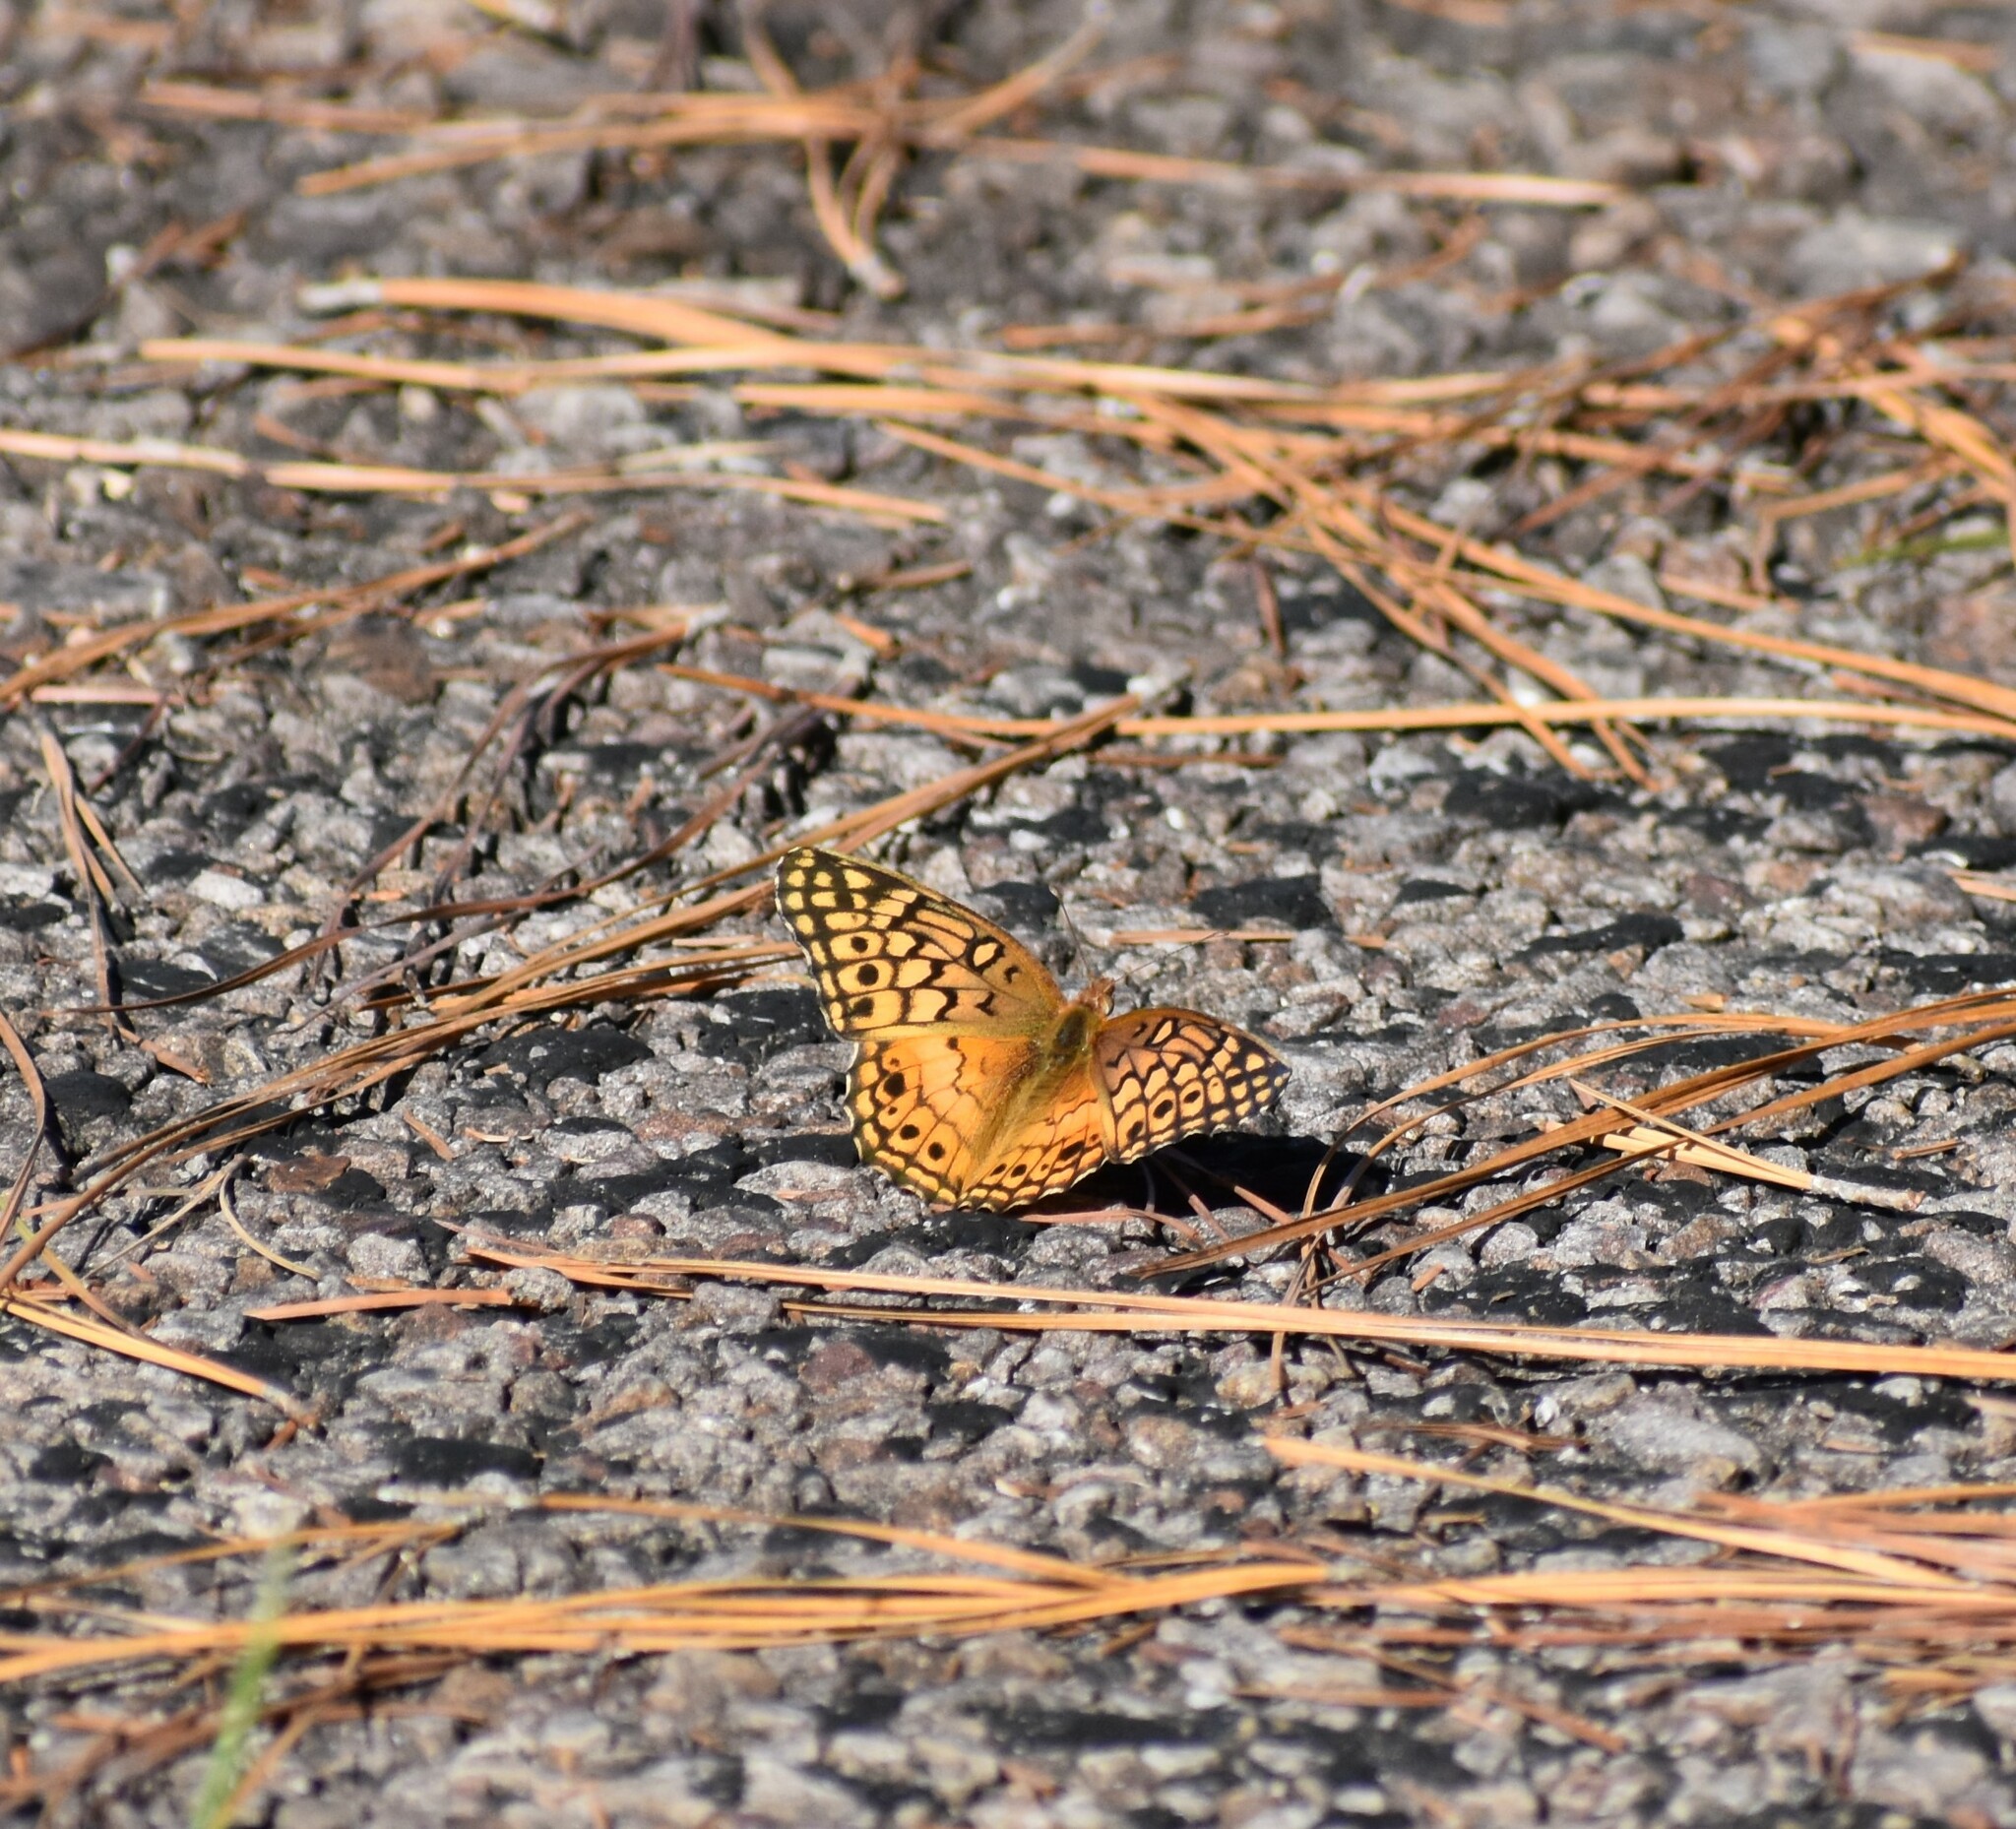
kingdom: Animalia
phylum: Arthropoda
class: Insecta
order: Lepidoptera
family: Nymphalidae
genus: Euptoieta
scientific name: Euptoieta claudia
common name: Variegated fritillary
